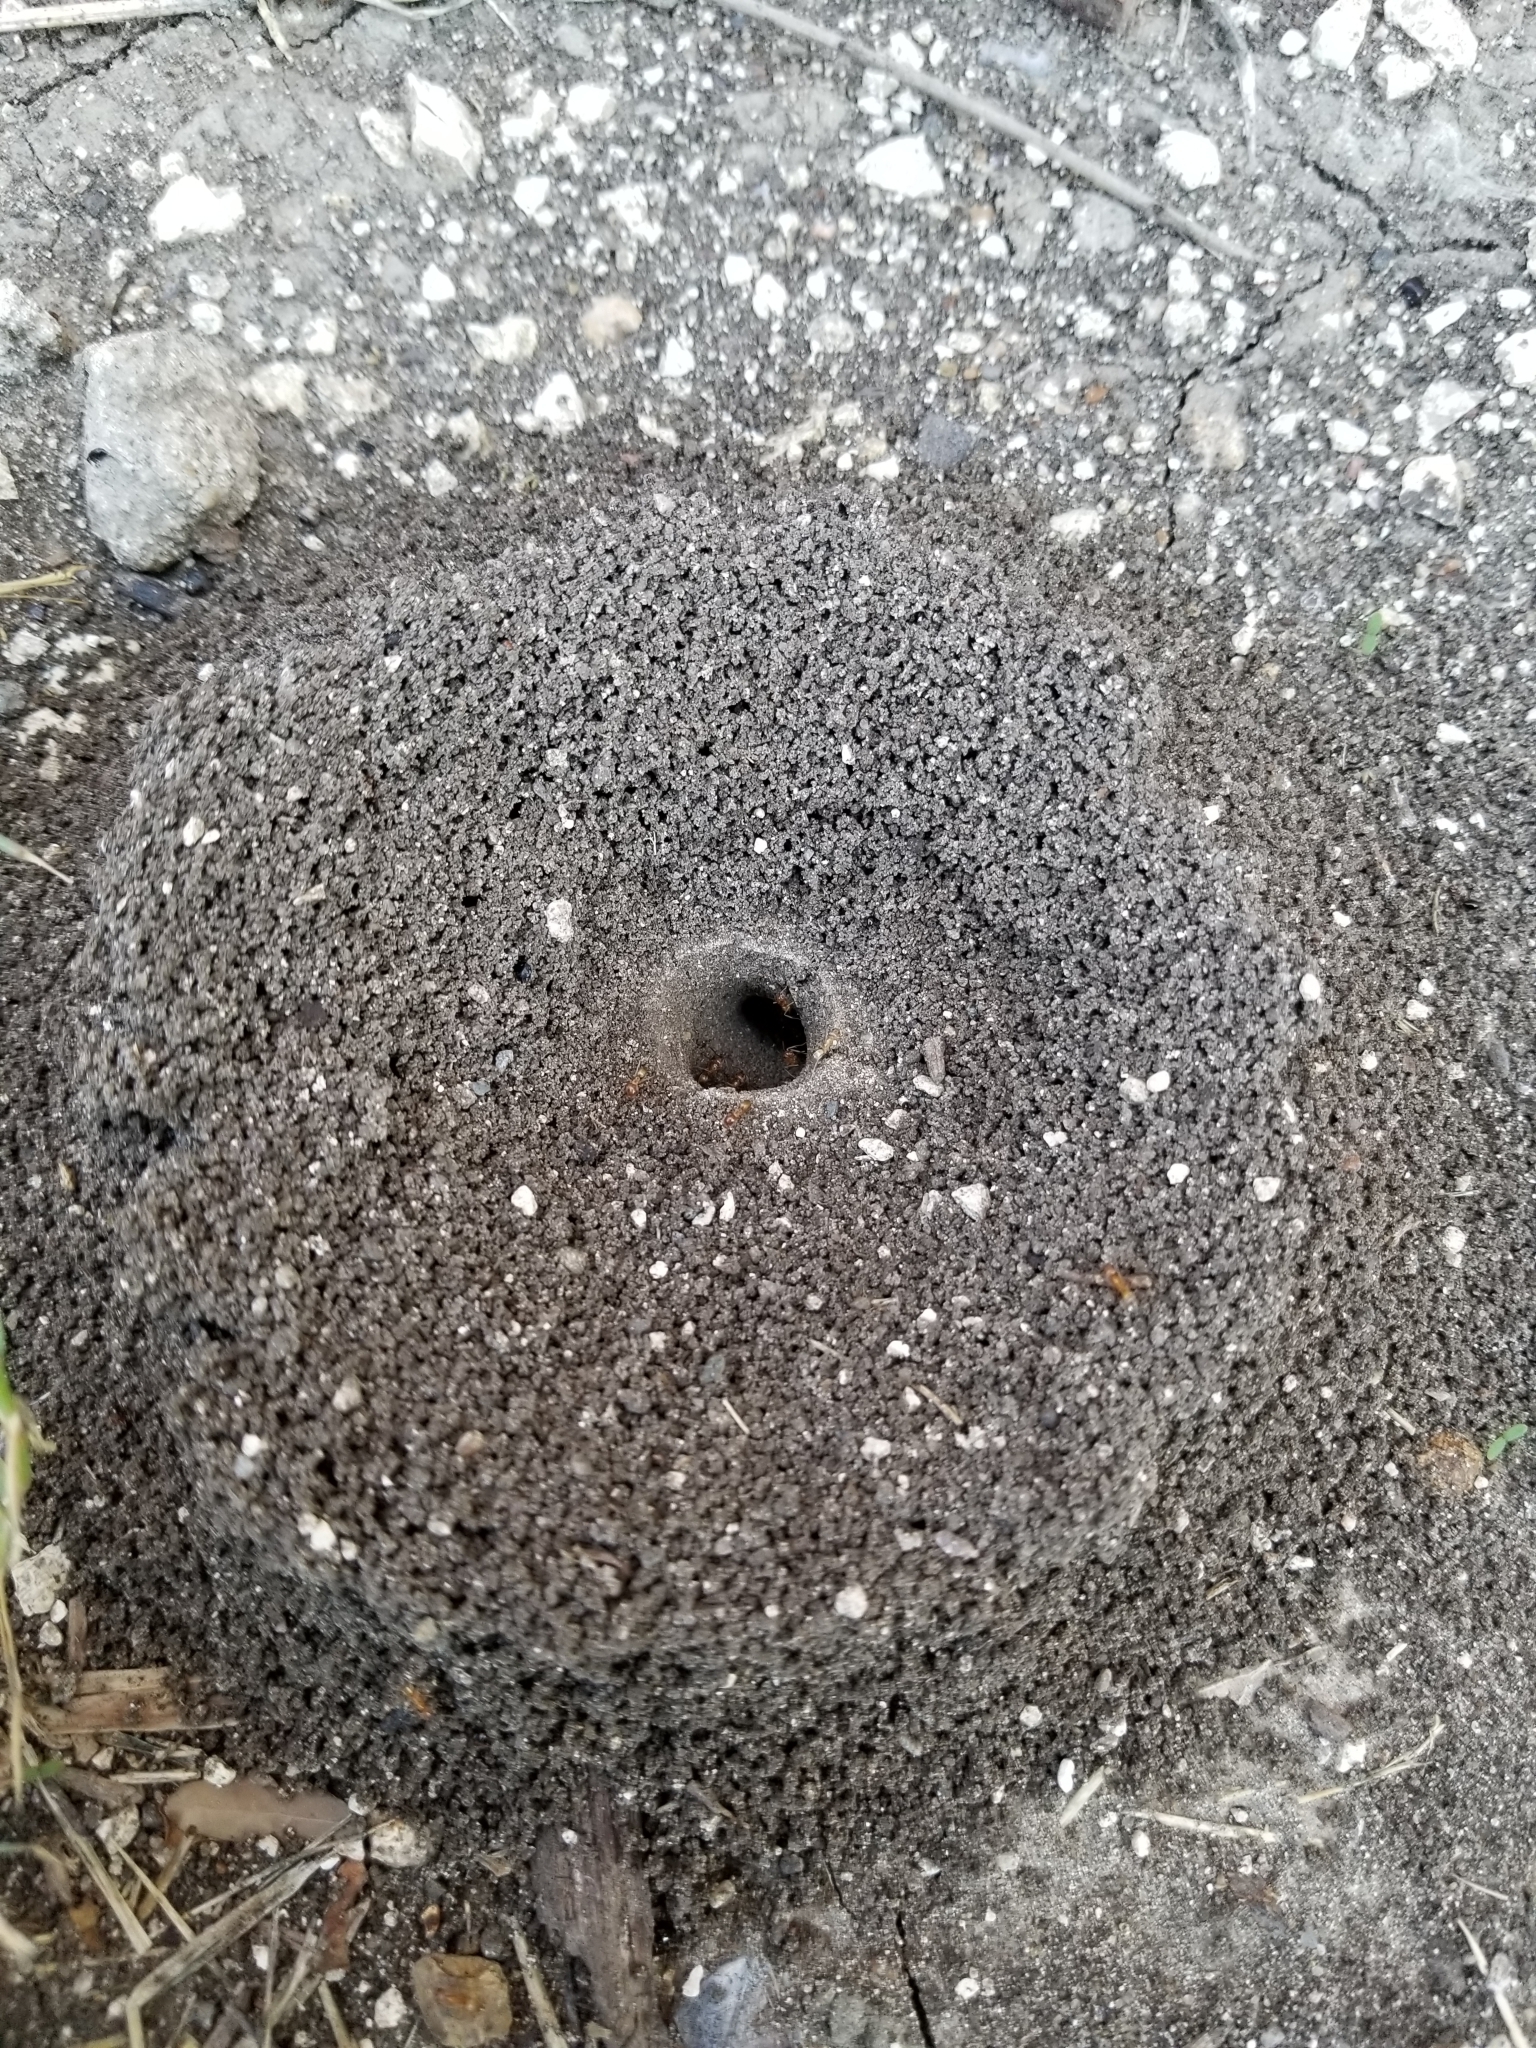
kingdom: Animalia
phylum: Arthropoda
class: Insecta
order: Hymenoptera
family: Formicidae
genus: Dorymyrmex
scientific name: Dorymyrmex flavus
